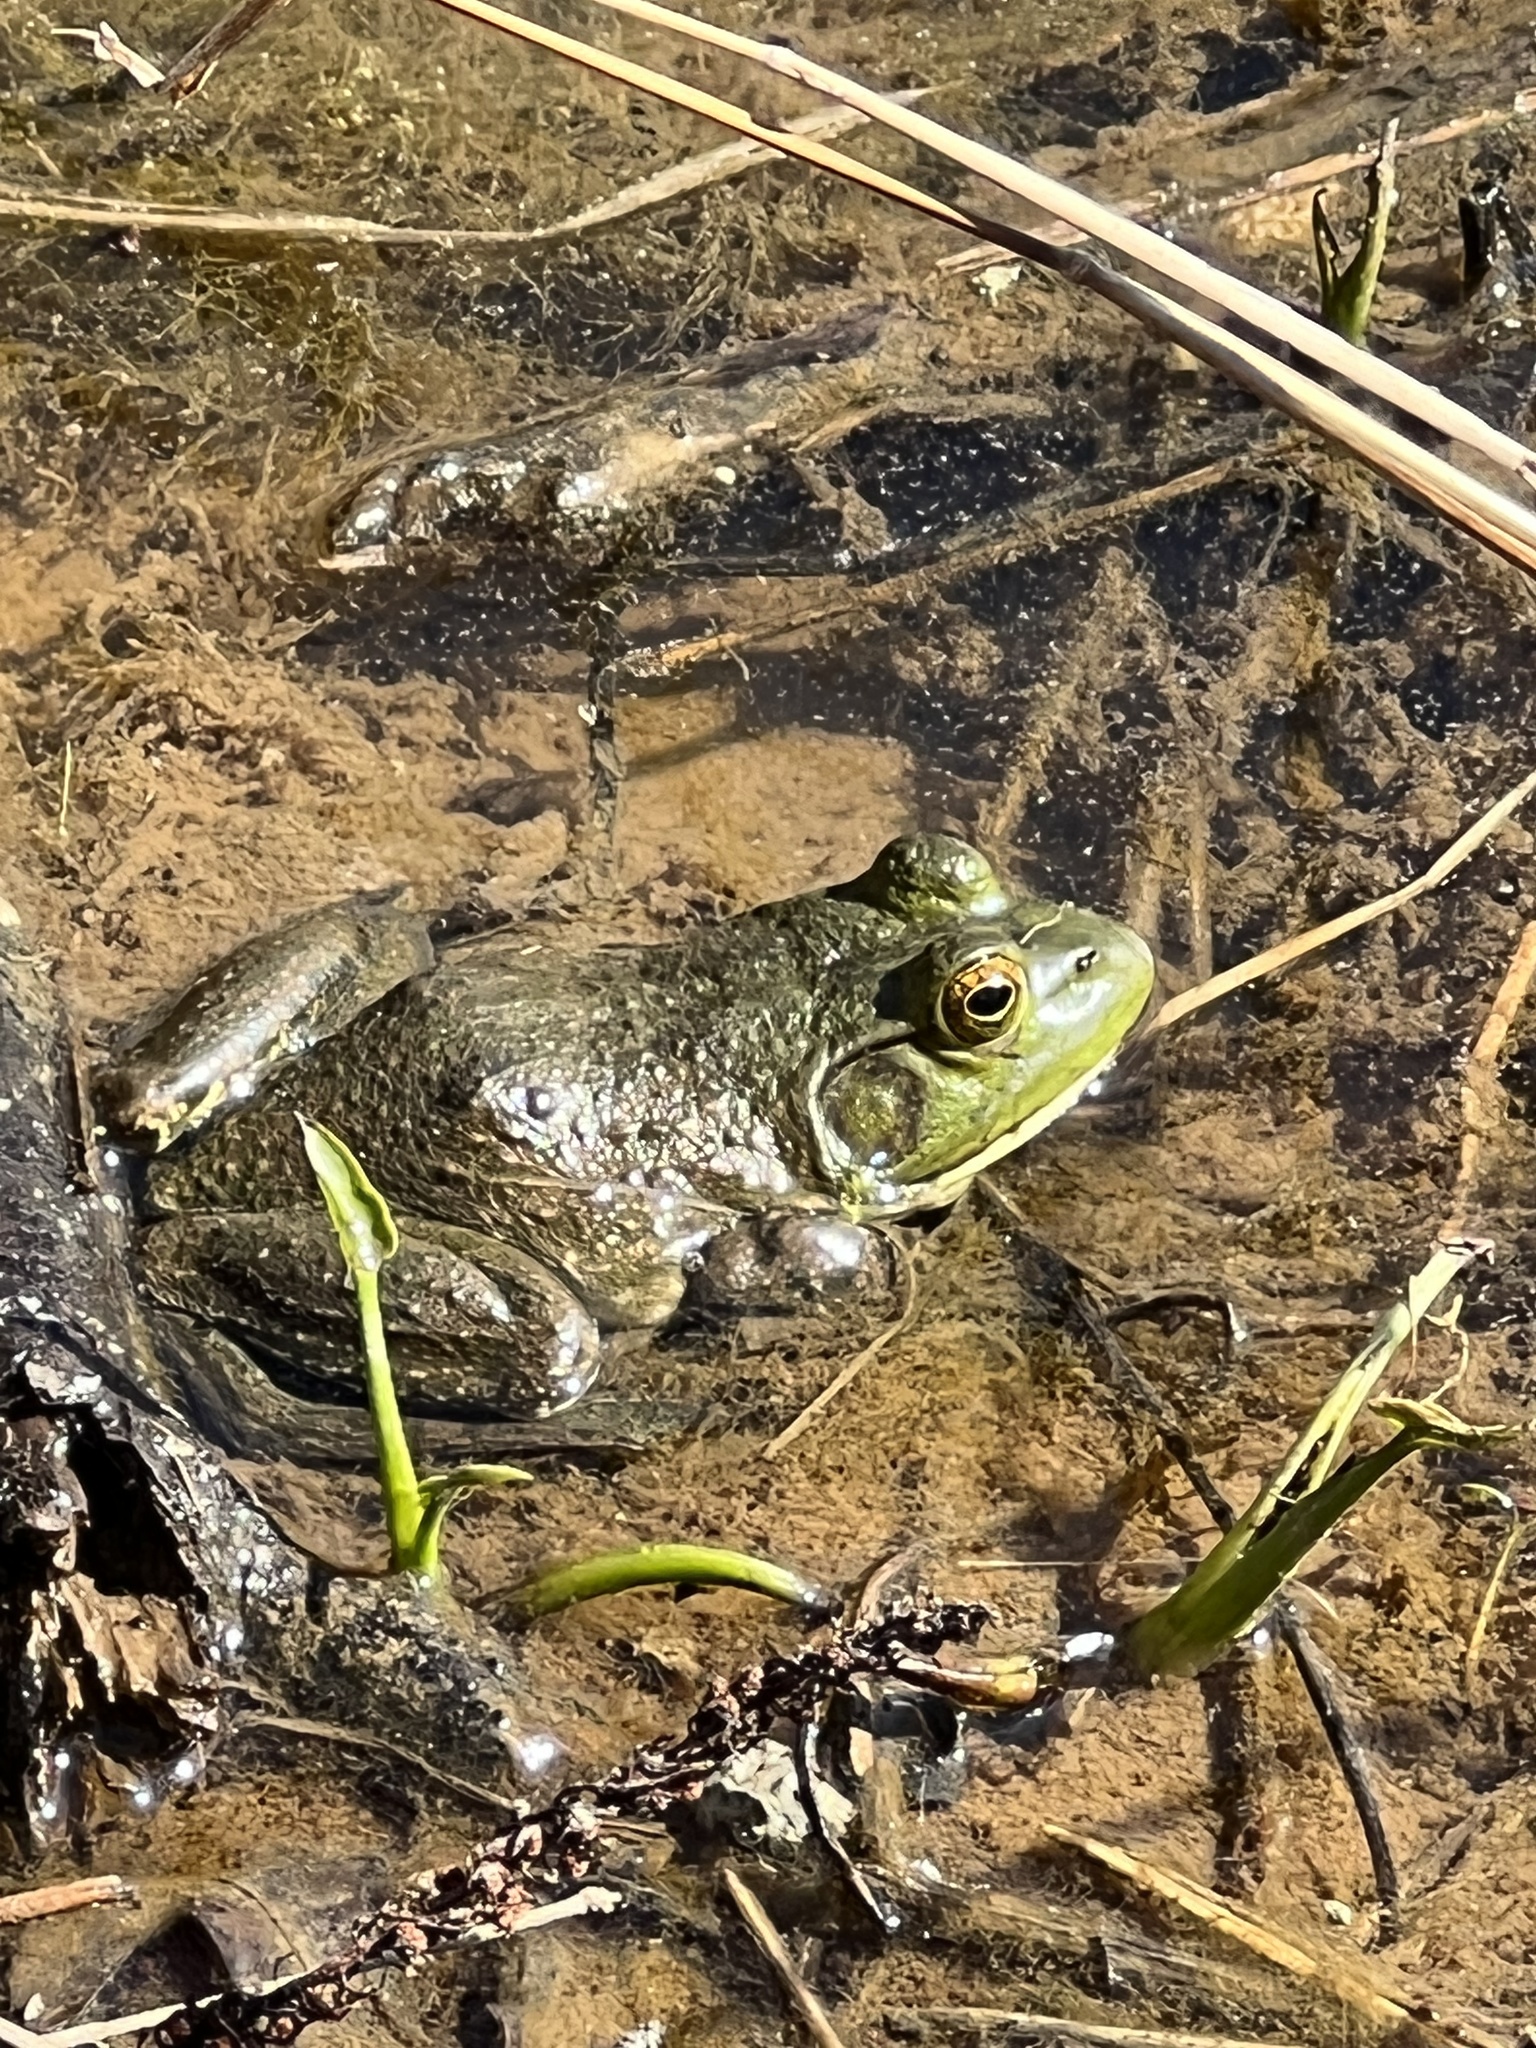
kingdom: Animalia
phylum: Chordata
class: Amphibia
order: Anura
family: Ranidae
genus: Lithobates
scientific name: Lithobates catesbeianus
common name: American bullfrog
